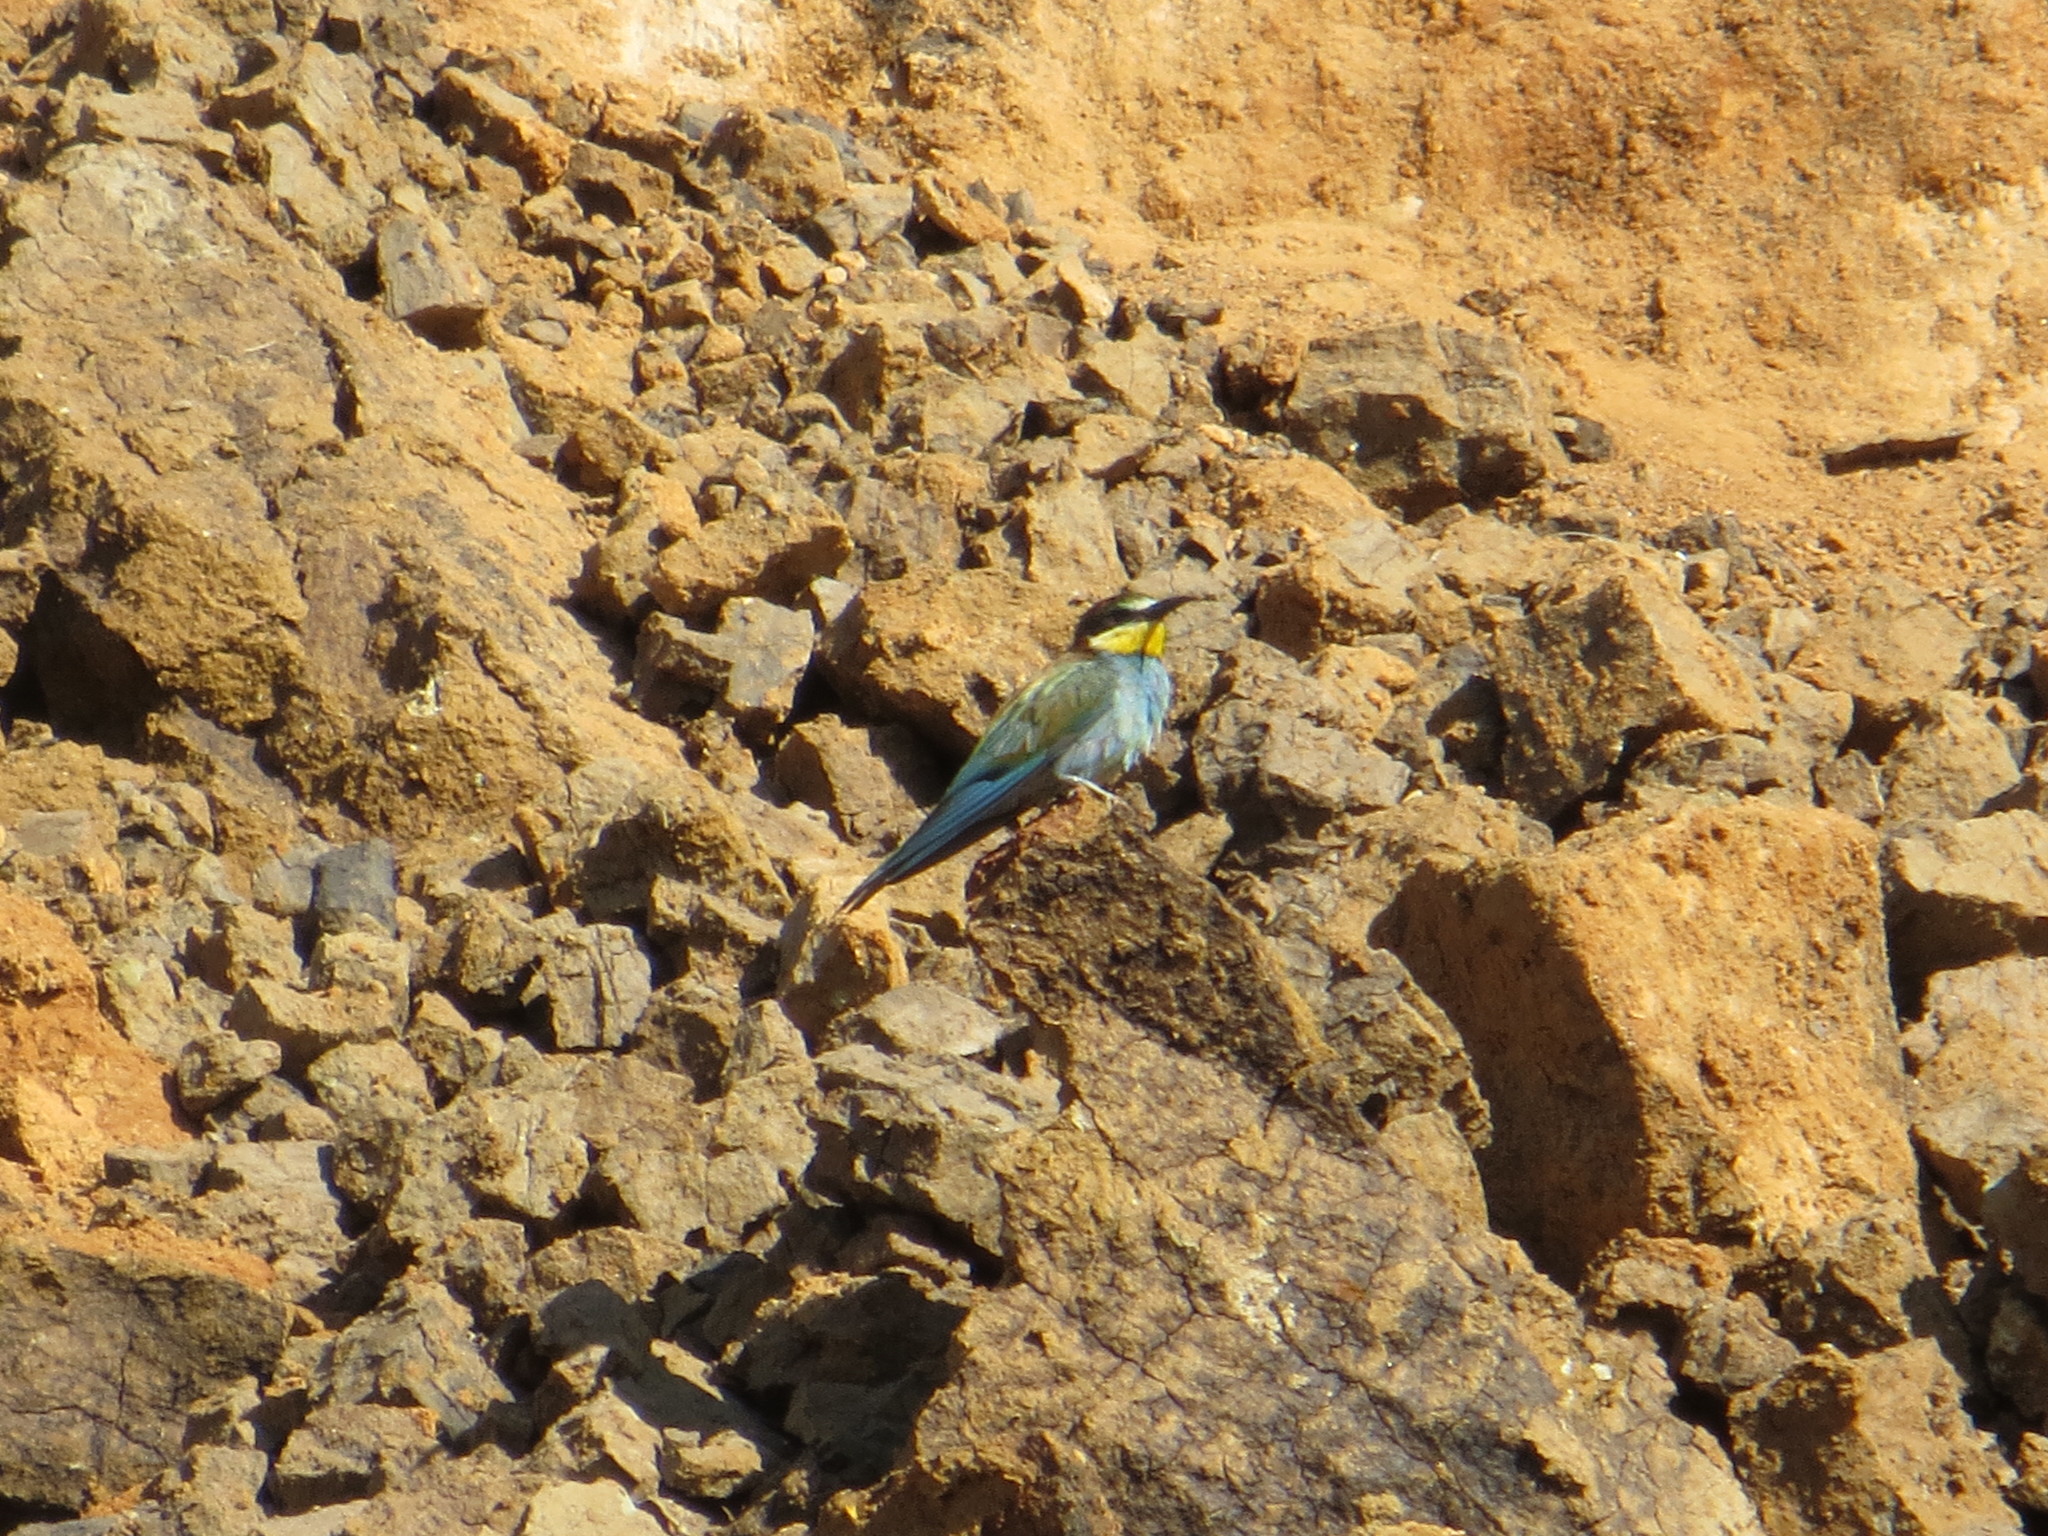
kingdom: Animalia
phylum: Chordata
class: Aves
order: Coraciiformes
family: Meropidae
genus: Merops
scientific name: Merops apiaster
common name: European bee-eater
